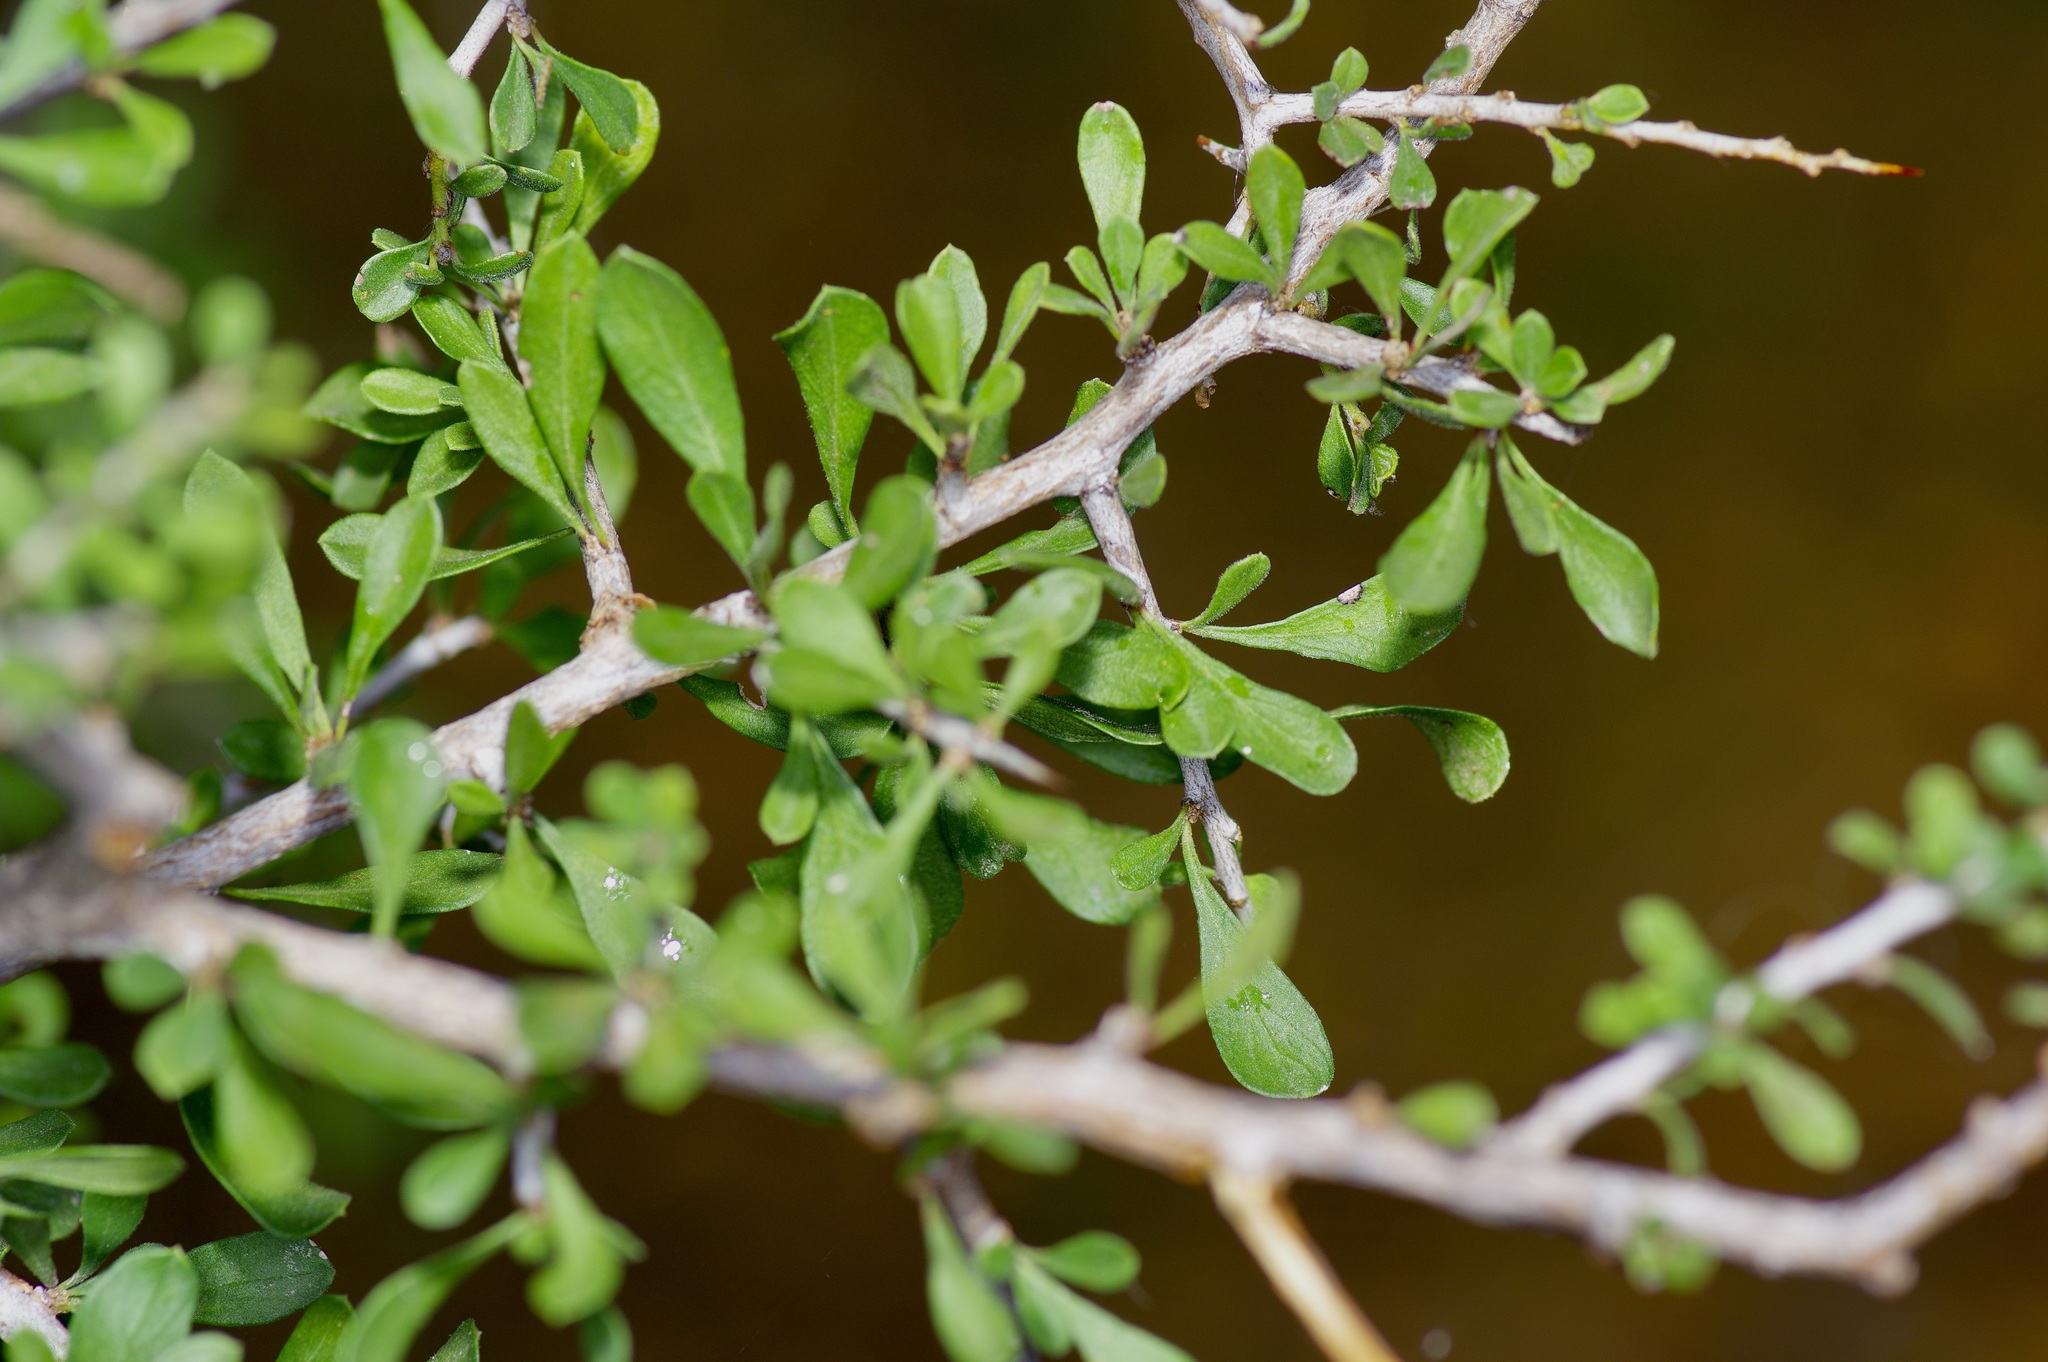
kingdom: Plantae
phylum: Tracheophyta
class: Magnoliopsida
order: Rosales
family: Rhamnaceae
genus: Condalia
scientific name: Condalia hookeri
